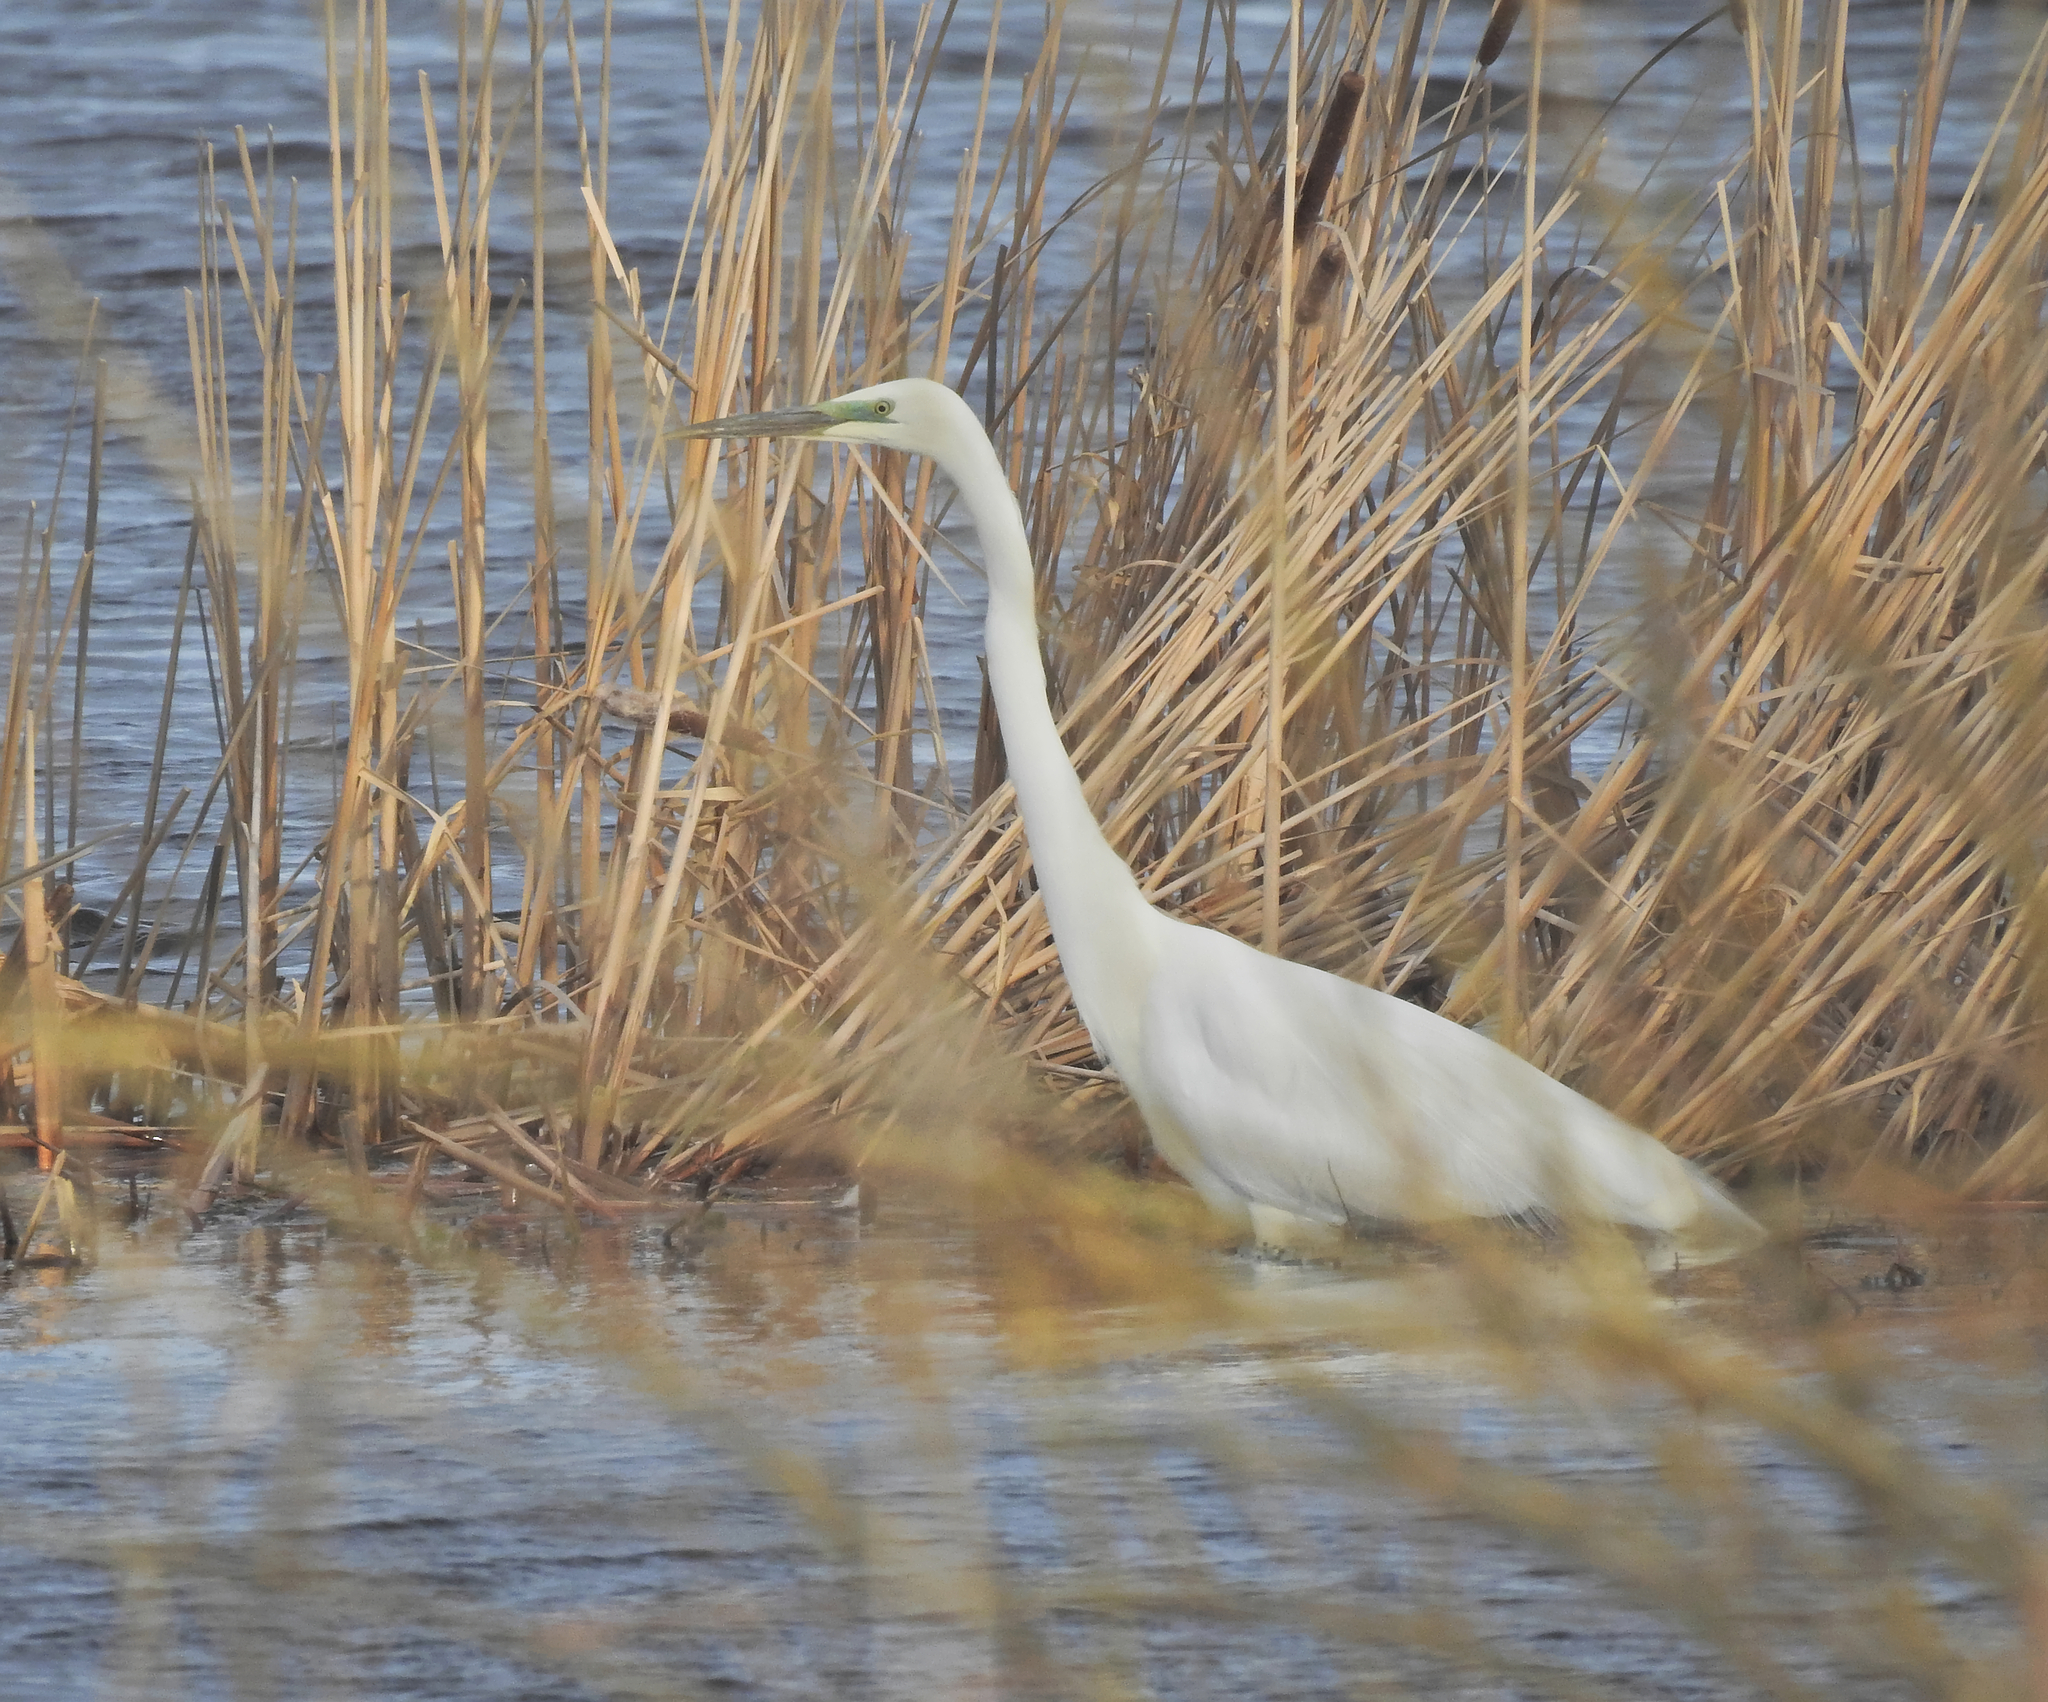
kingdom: Animalia
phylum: Chordata
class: Aves
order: Pelecaniformes
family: Ardeidae
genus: Ardea
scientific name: Ardea alba
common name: Great egret
